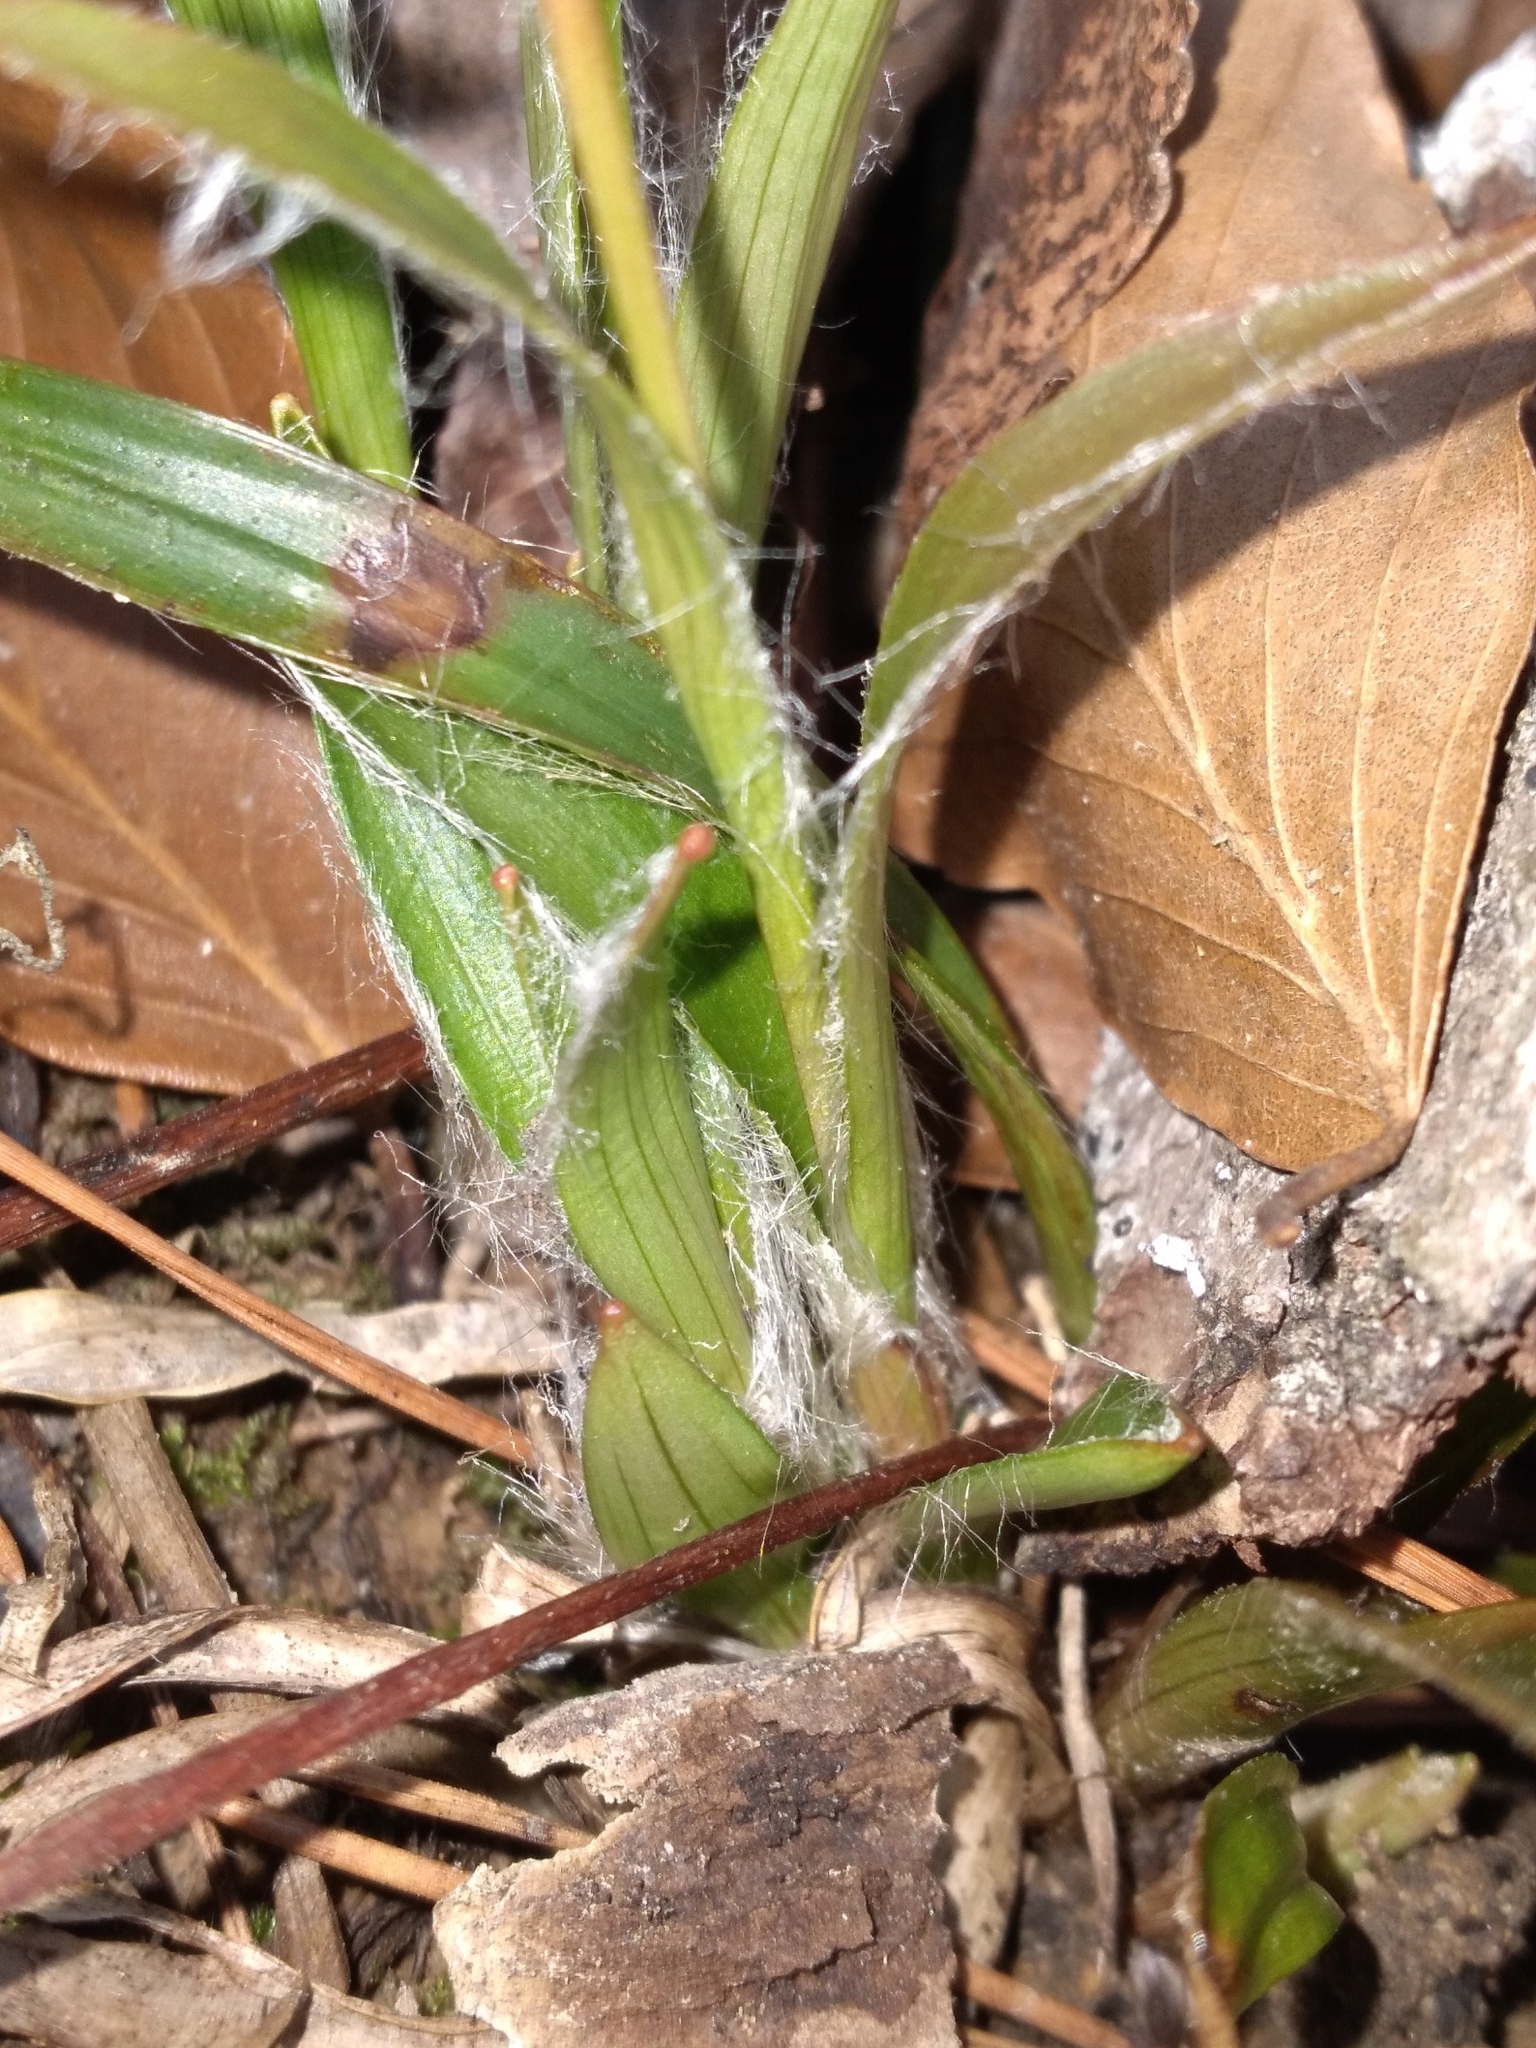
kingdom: Plantae
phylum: Tracheophyta
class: Liliopsida
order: Poales
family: Juncaceae
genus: Luzula
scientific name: Luzula acuminata
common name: Hairy woodrush
